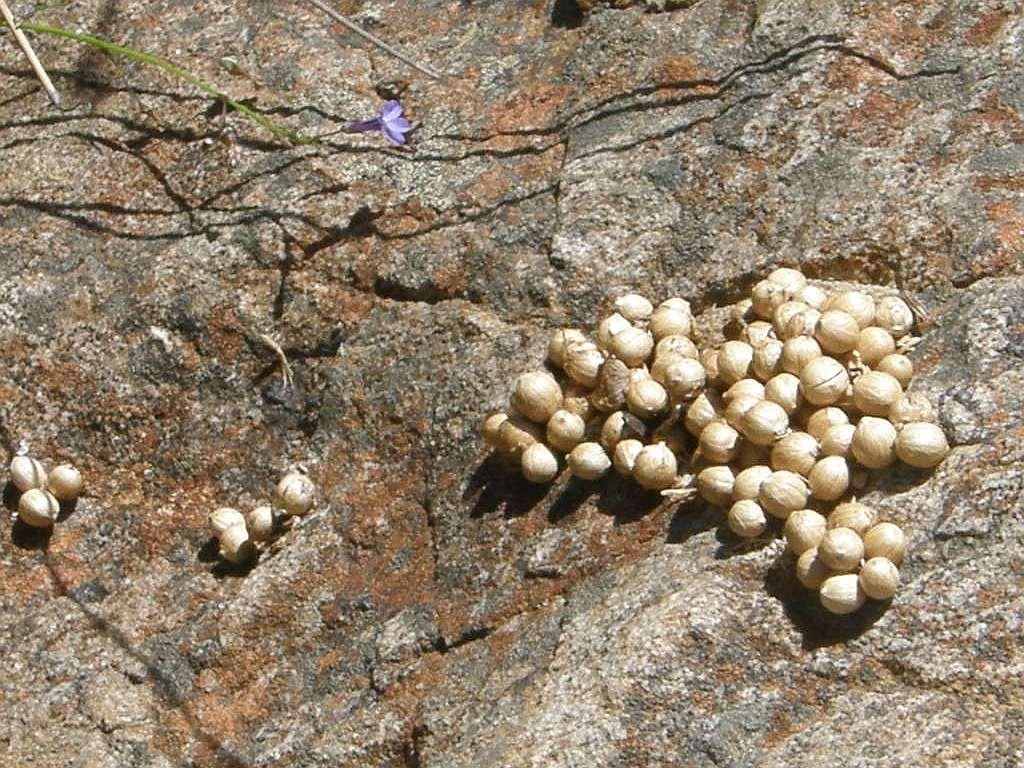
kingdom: Animalia
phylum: Chordata
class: Mammalia
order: Primates
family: Cercopithecidae
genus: Papio
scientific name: Papio ursinus
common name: Chacma baboon
